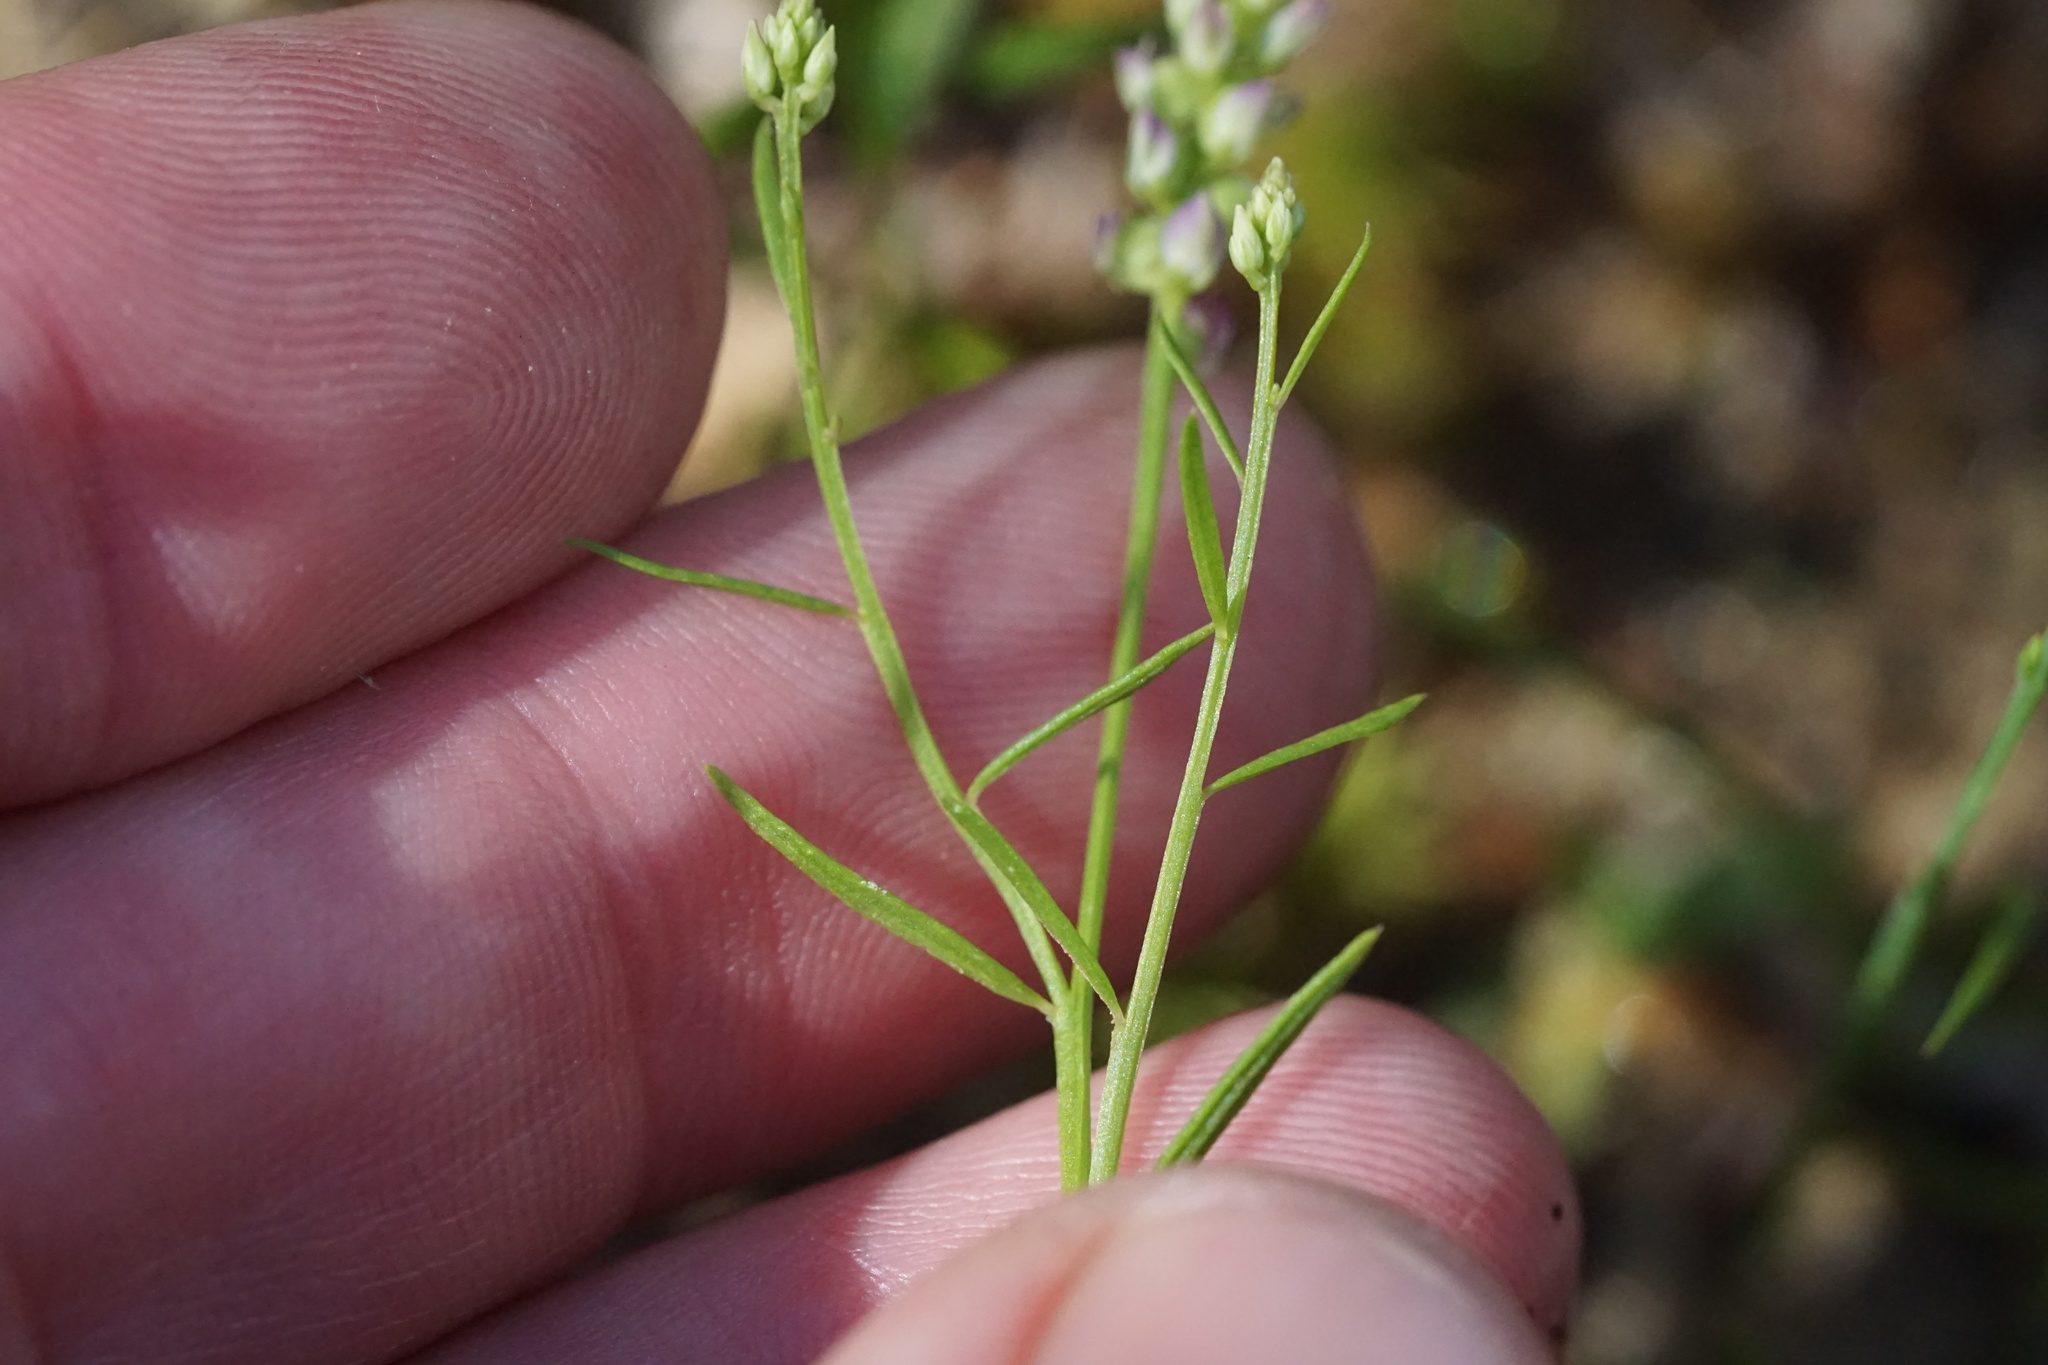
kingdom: Plantae
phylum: Tracheophyta
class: Magnoliopsida
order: Fabales
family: Polygalaceae
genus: Polygala
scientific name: Polygala nuttallii
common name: Nuttall's milkwort
